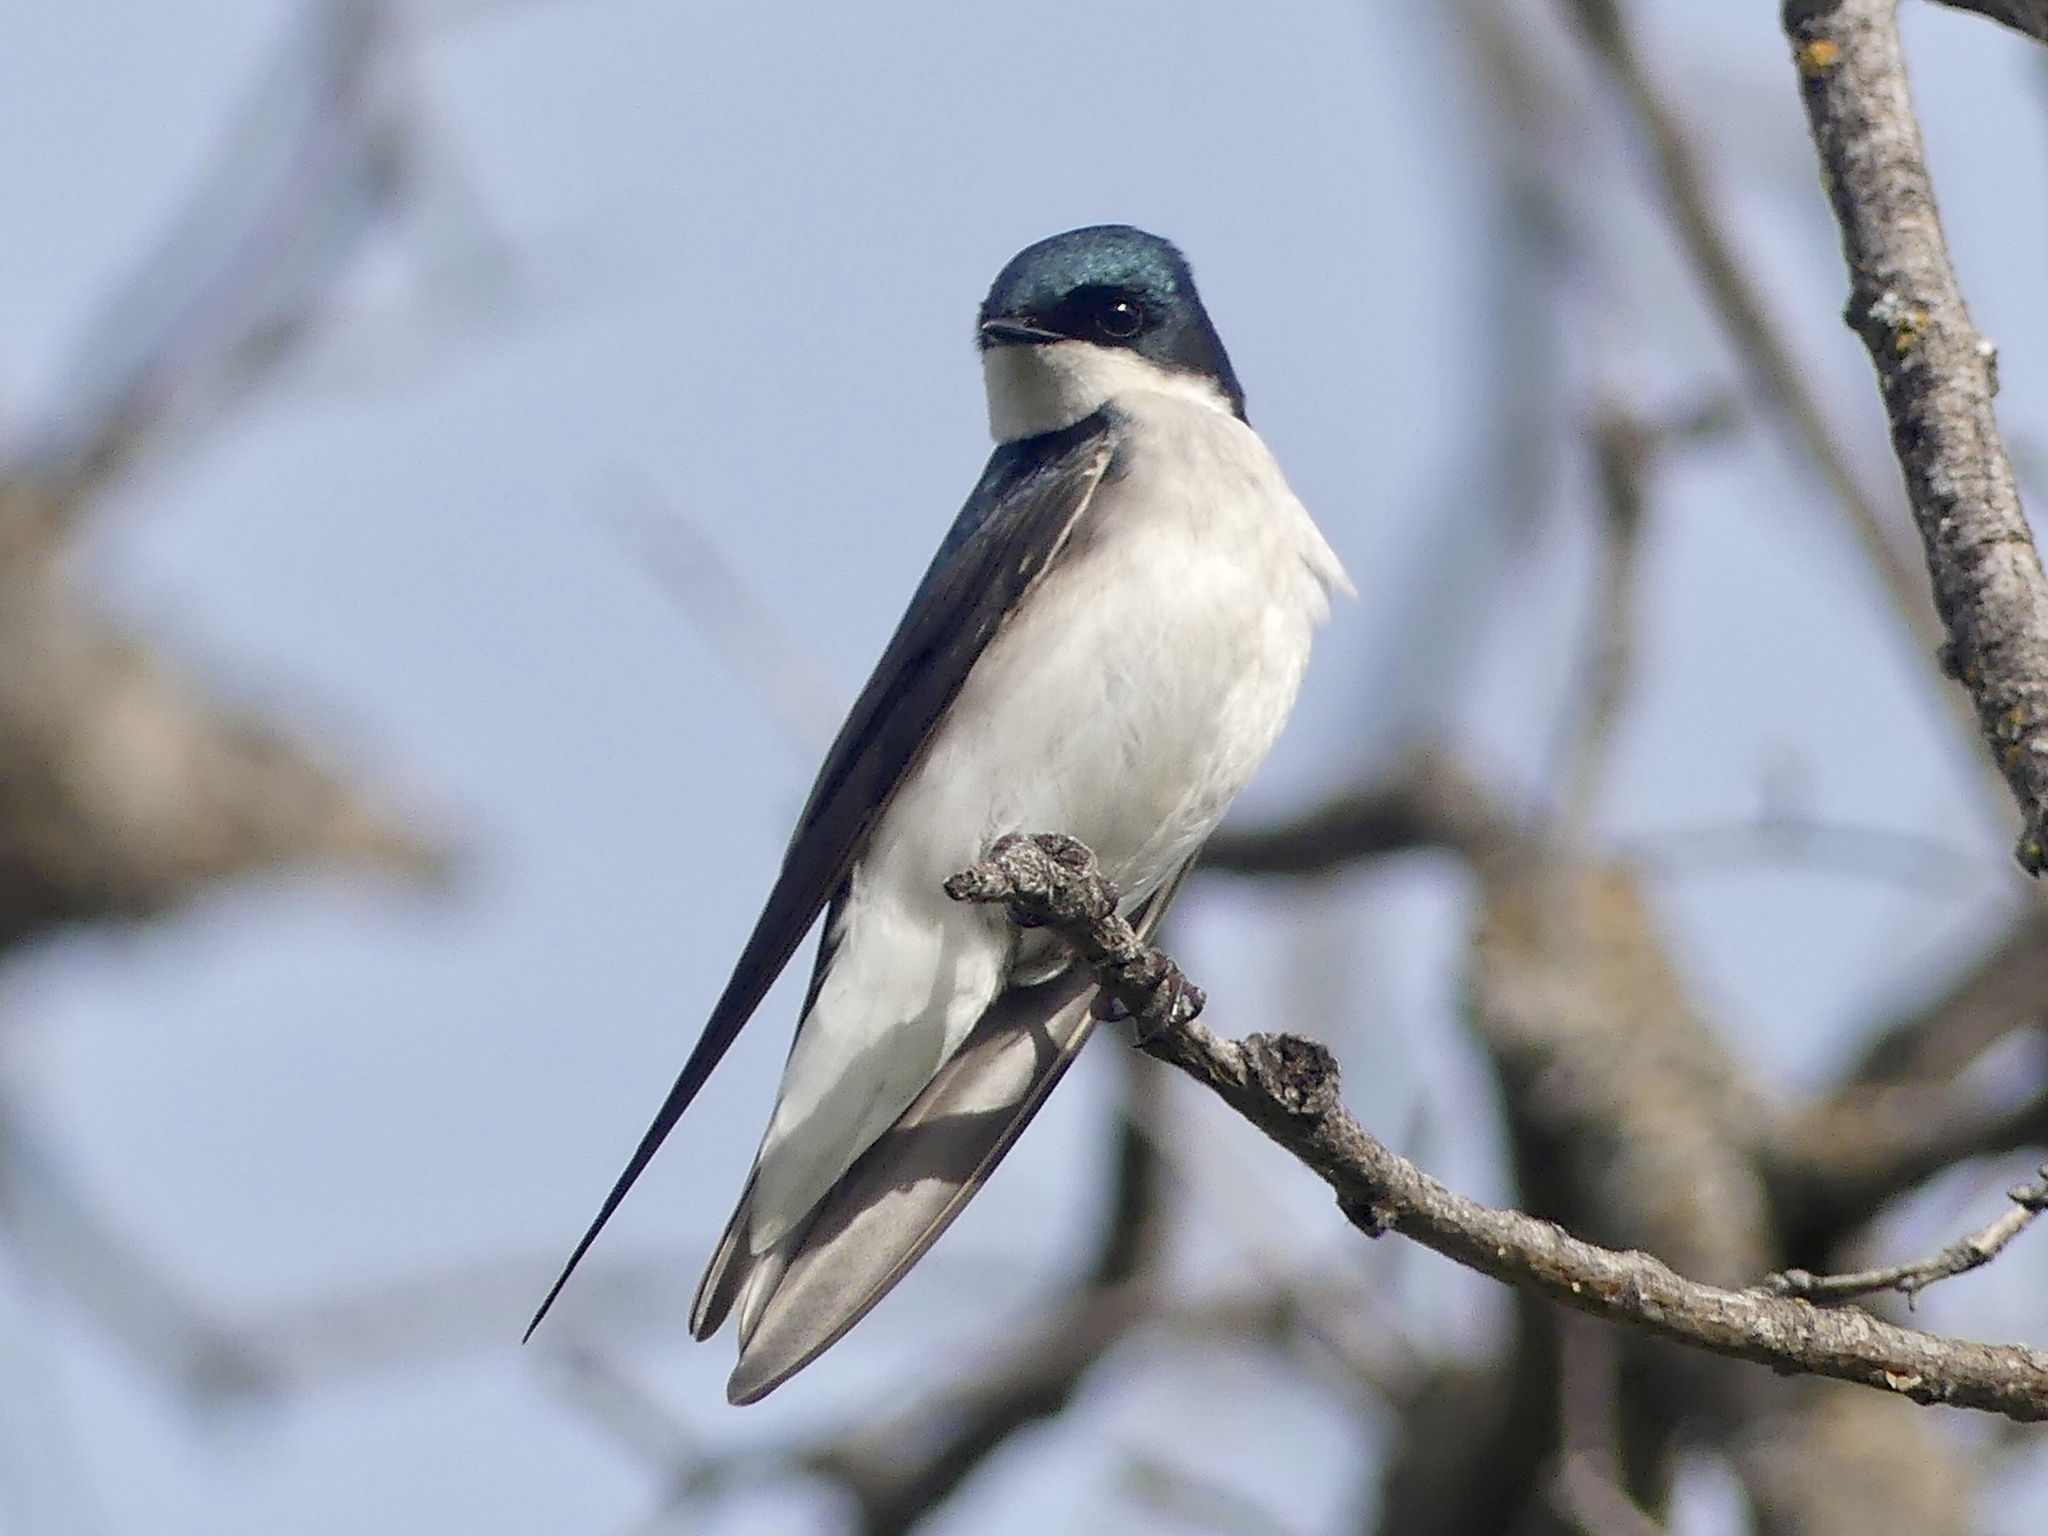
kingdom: Animalia
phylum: Chordata
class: Aves
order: Passeriformes
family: Hirundinidae
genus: Tachycineta
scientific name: Tachycineta bicolor
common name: Tree swallow
